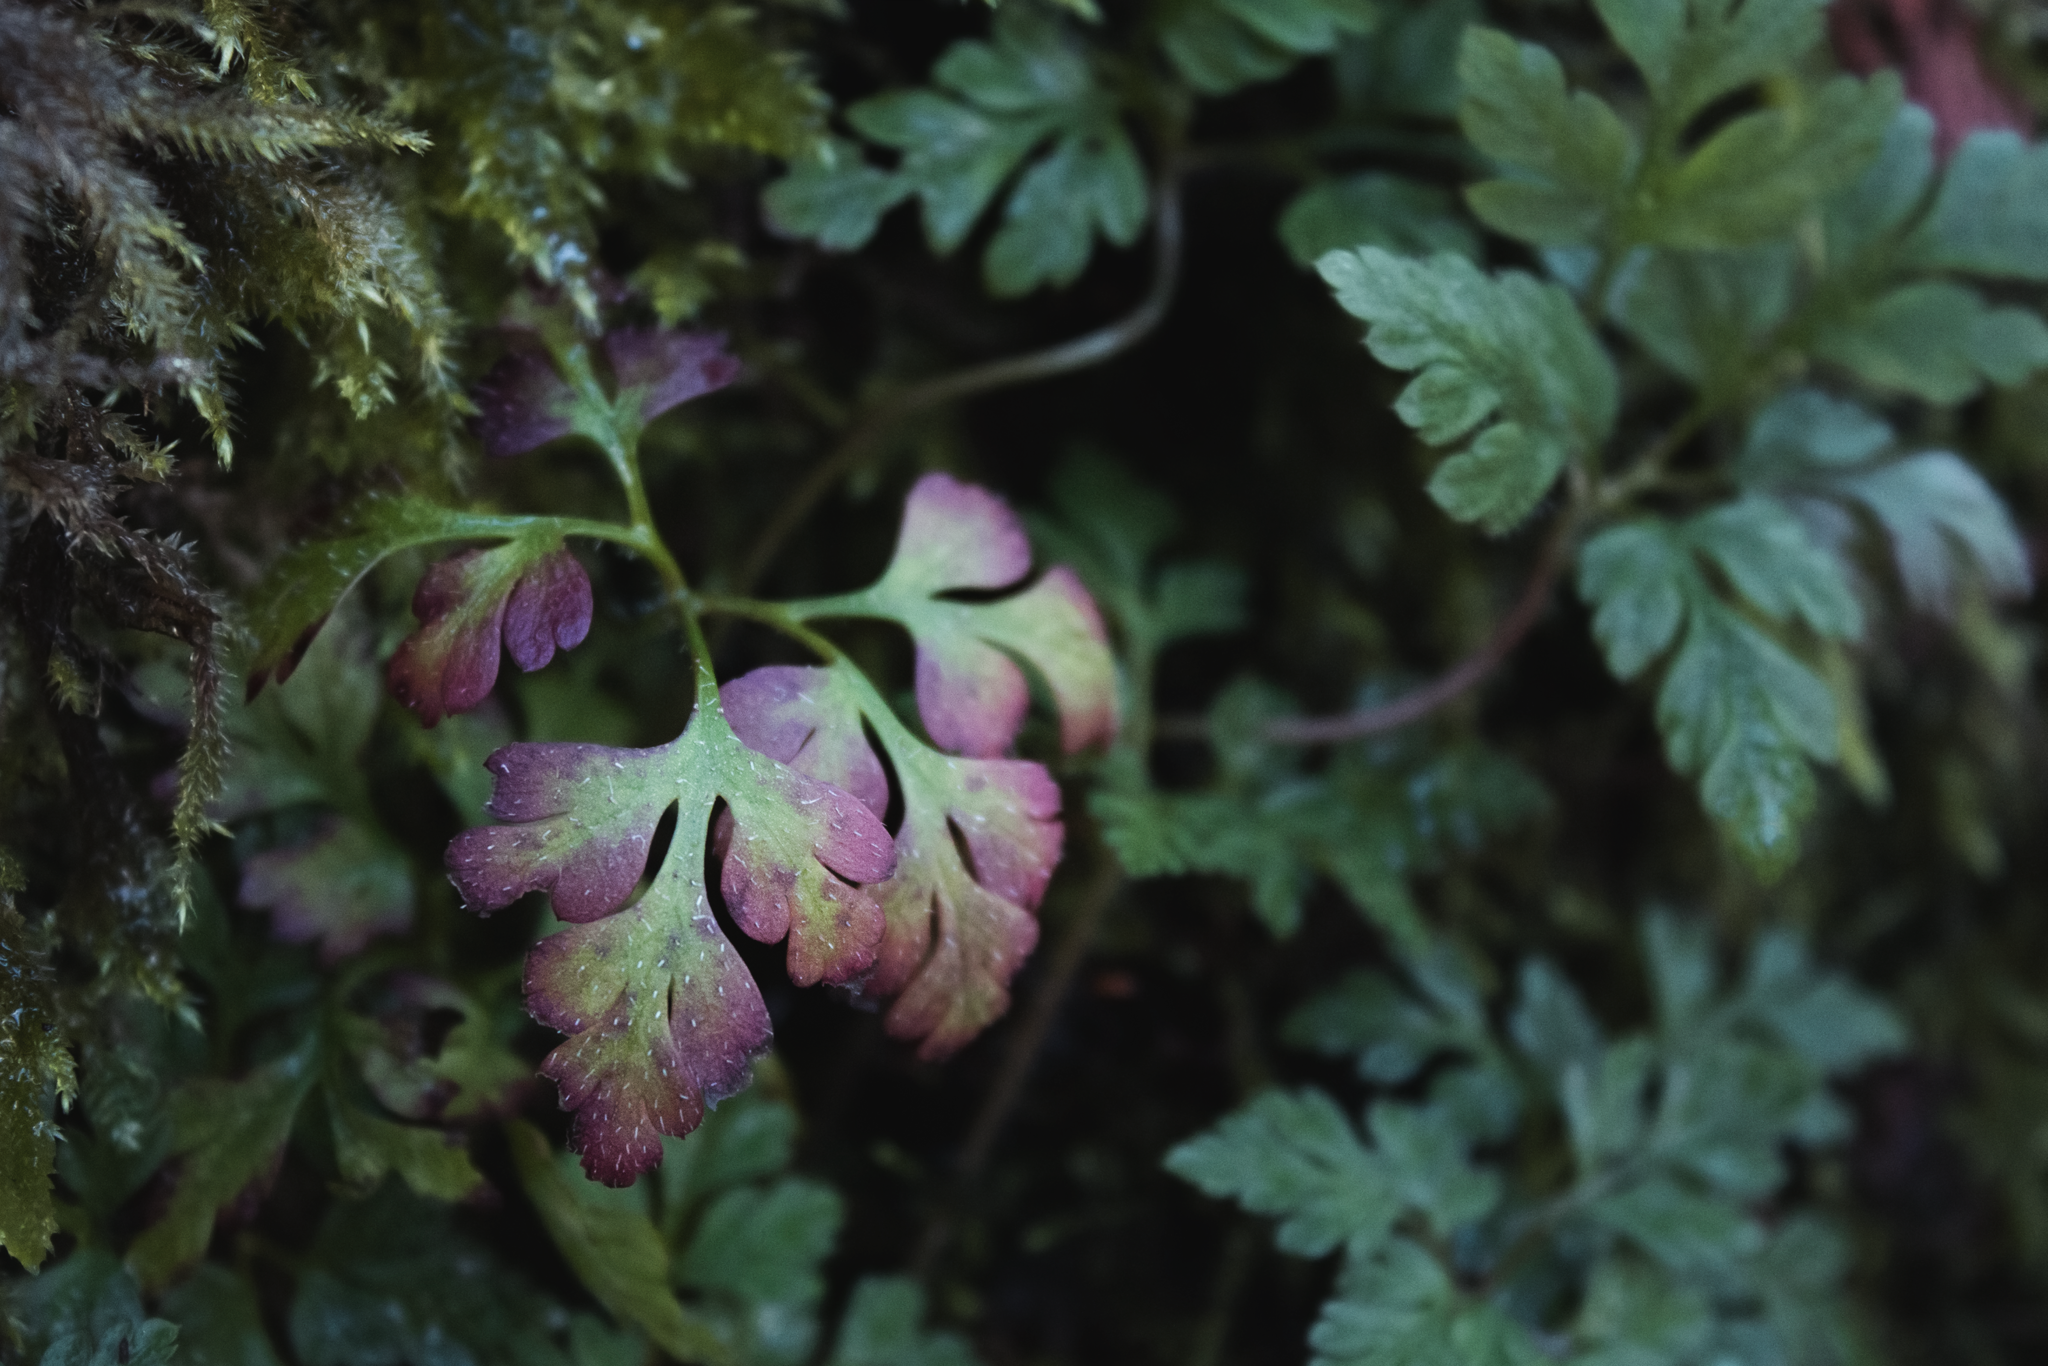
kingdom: Plantae
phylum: Tracheophyta
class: Magnoliopsida
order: Geraniales
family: Geraniaceae
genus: Geranium
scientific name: Geranium robertianum
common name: Herb-robert
